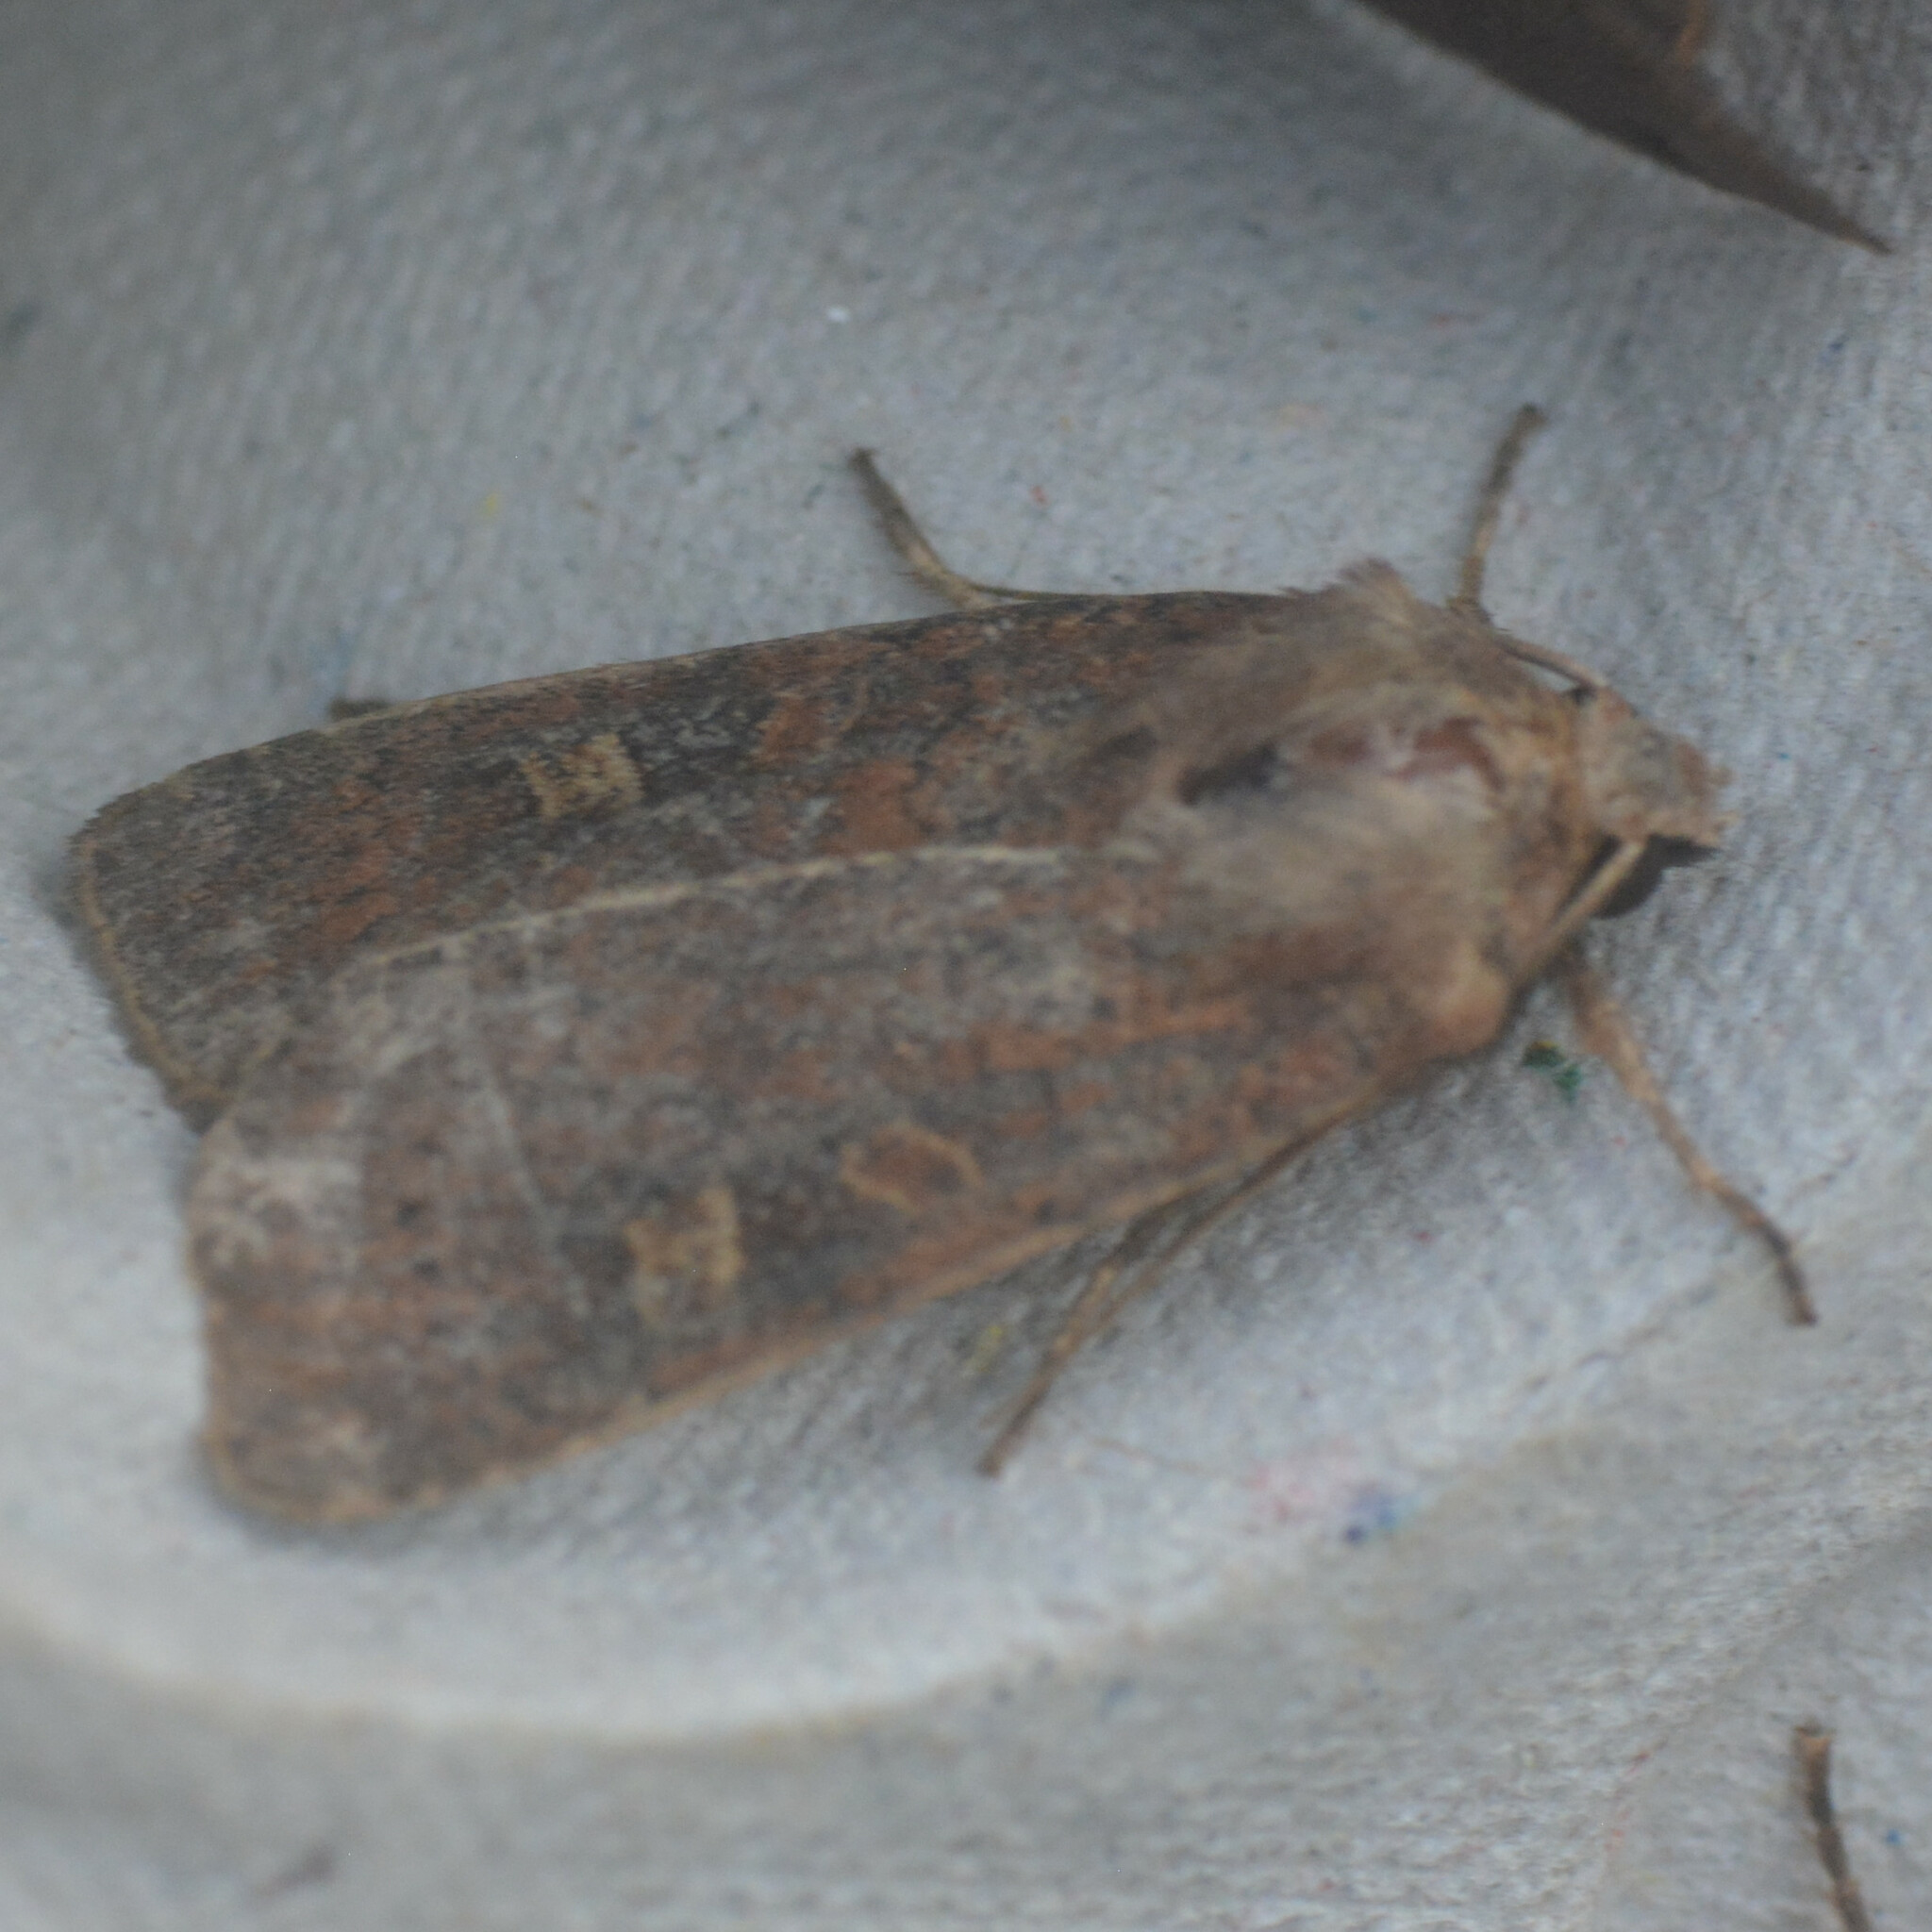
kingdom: Animalia
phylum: Arthropoda
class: Insecta
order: Lepidoptera
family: Noctuidae
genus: Xestia
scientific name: Xestia xanthographa
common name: Square-spot rustic
